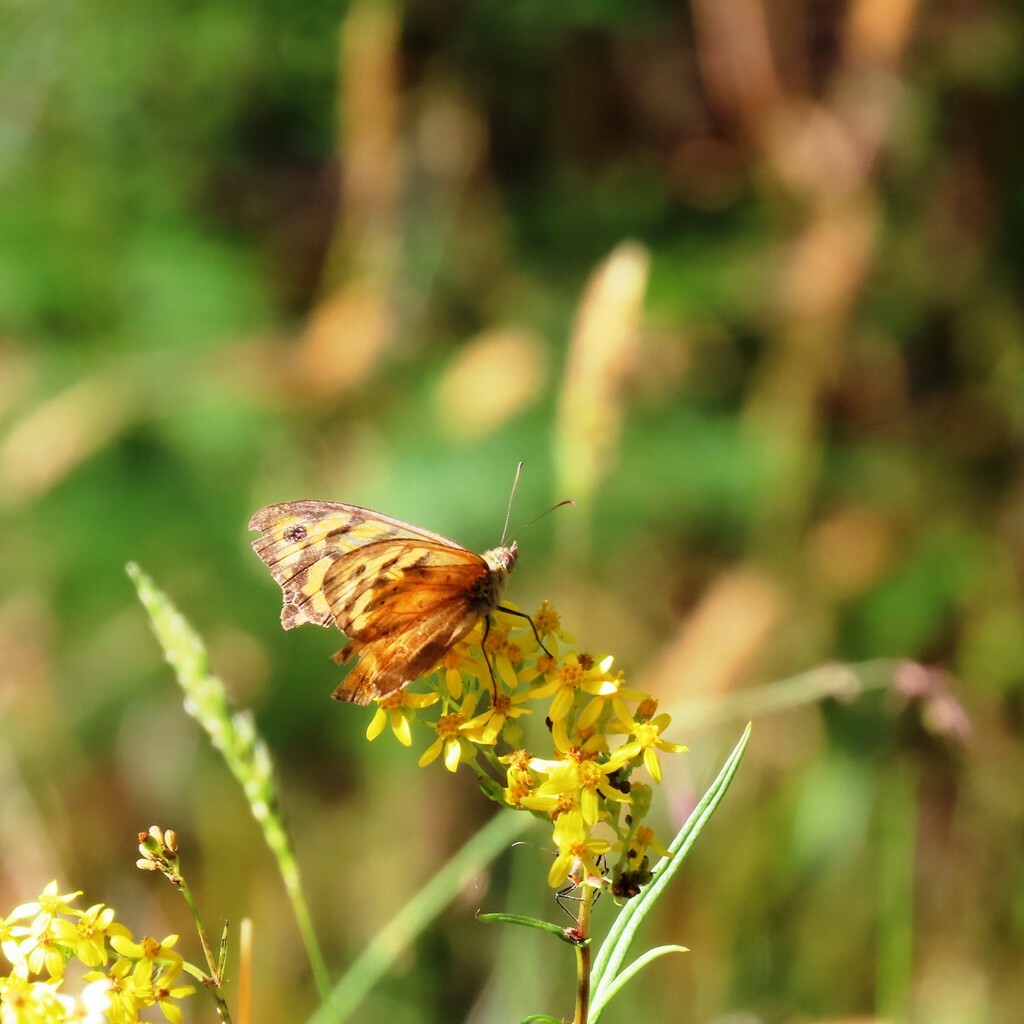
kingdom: Animalia
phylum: Arthropoda
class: Insecta
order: Lepidoptera
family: Nymphalidae
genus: Heteronympha
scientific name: Heteronympha merope
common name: Common brown
